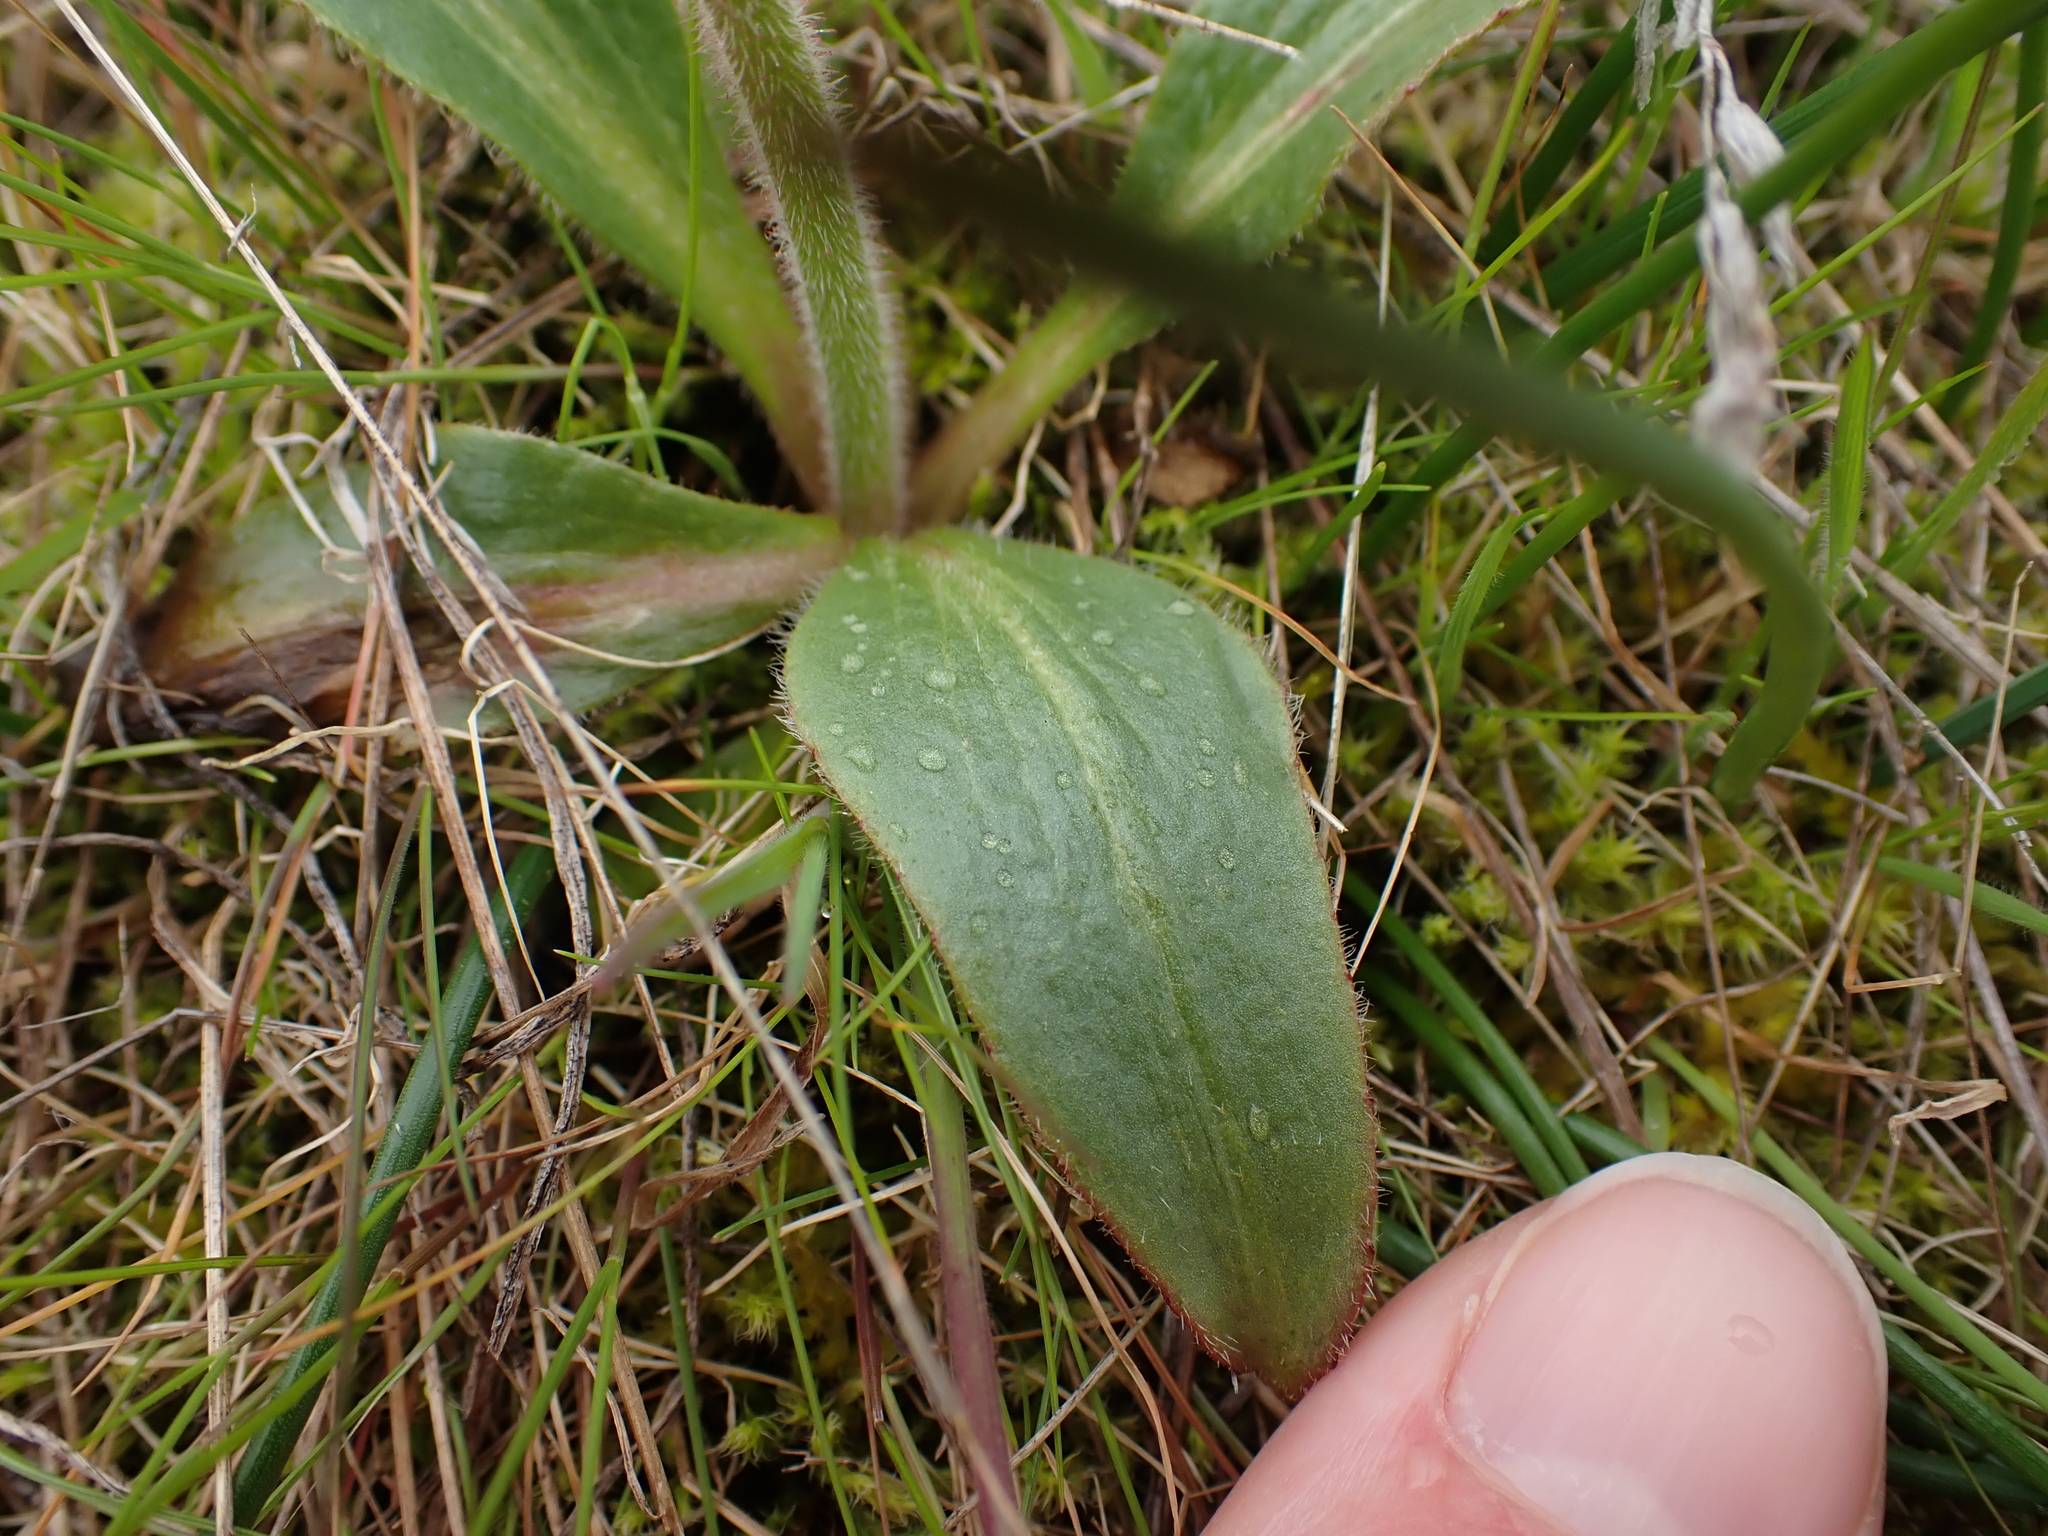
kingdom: Plantae
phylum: Tracheophyta
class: Magnoliopsida
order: Saxifragales
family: Saxifragaceae
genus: Micranthes
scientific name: Micranthes integrifolia
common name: Wholeleaf saxifrage
